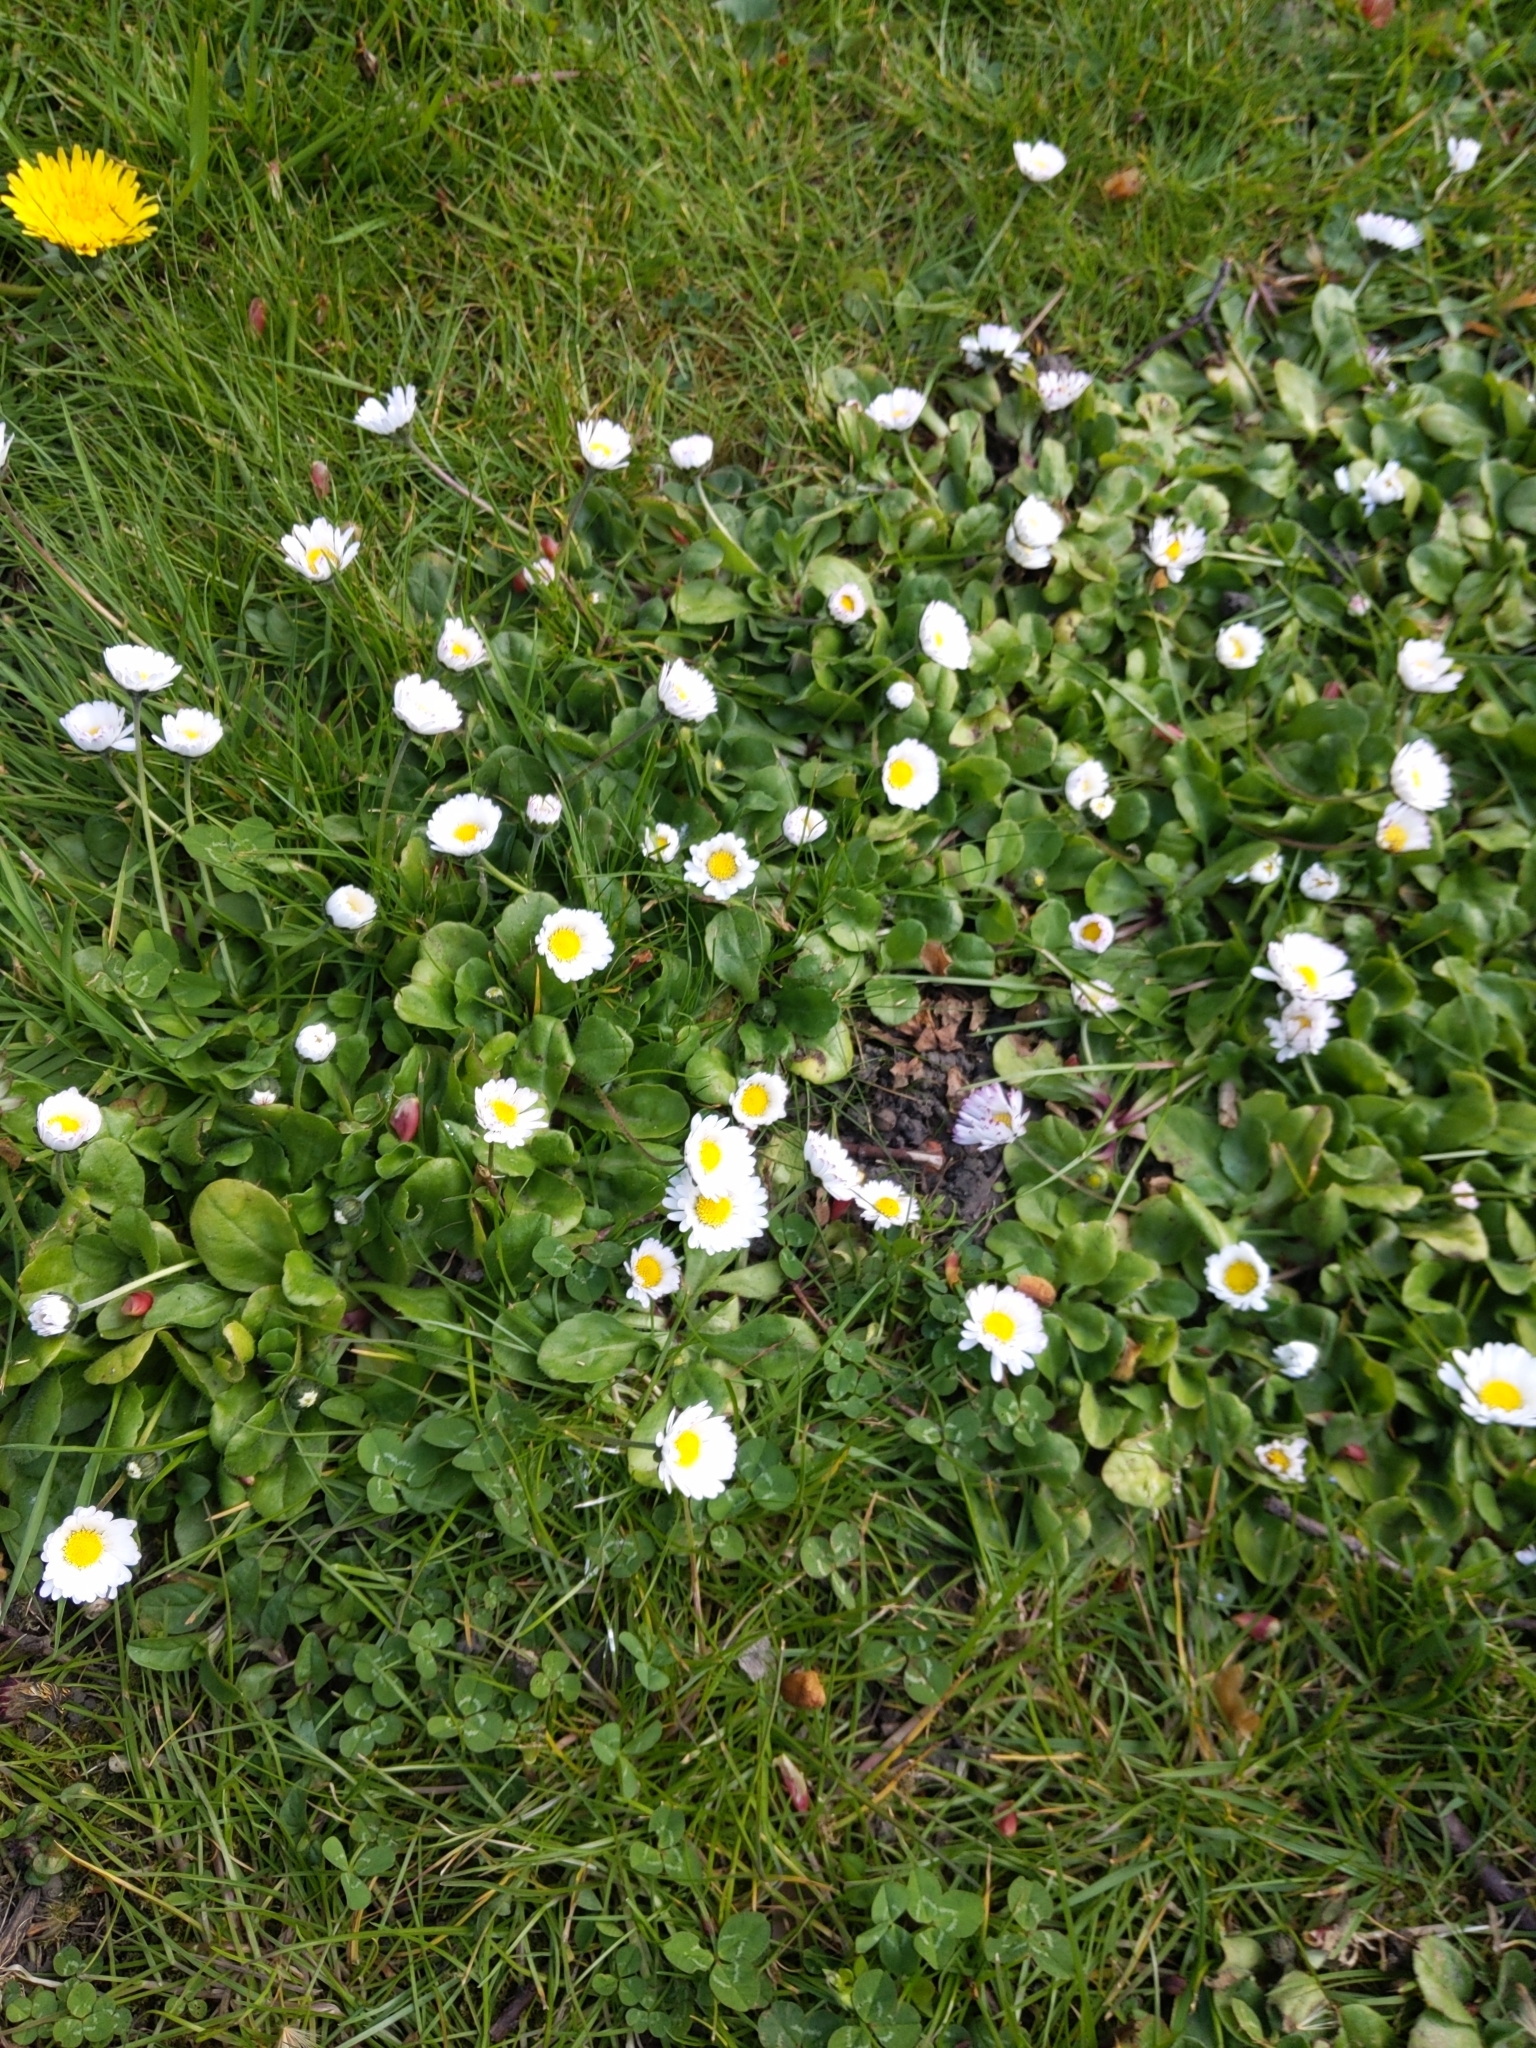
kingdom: Plantae
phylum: Tracheophyta
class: Magnoliopsida
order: Asterales
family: Asteraceae
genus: Bellis
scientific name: Bellis perennis
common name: Lawndaisy
